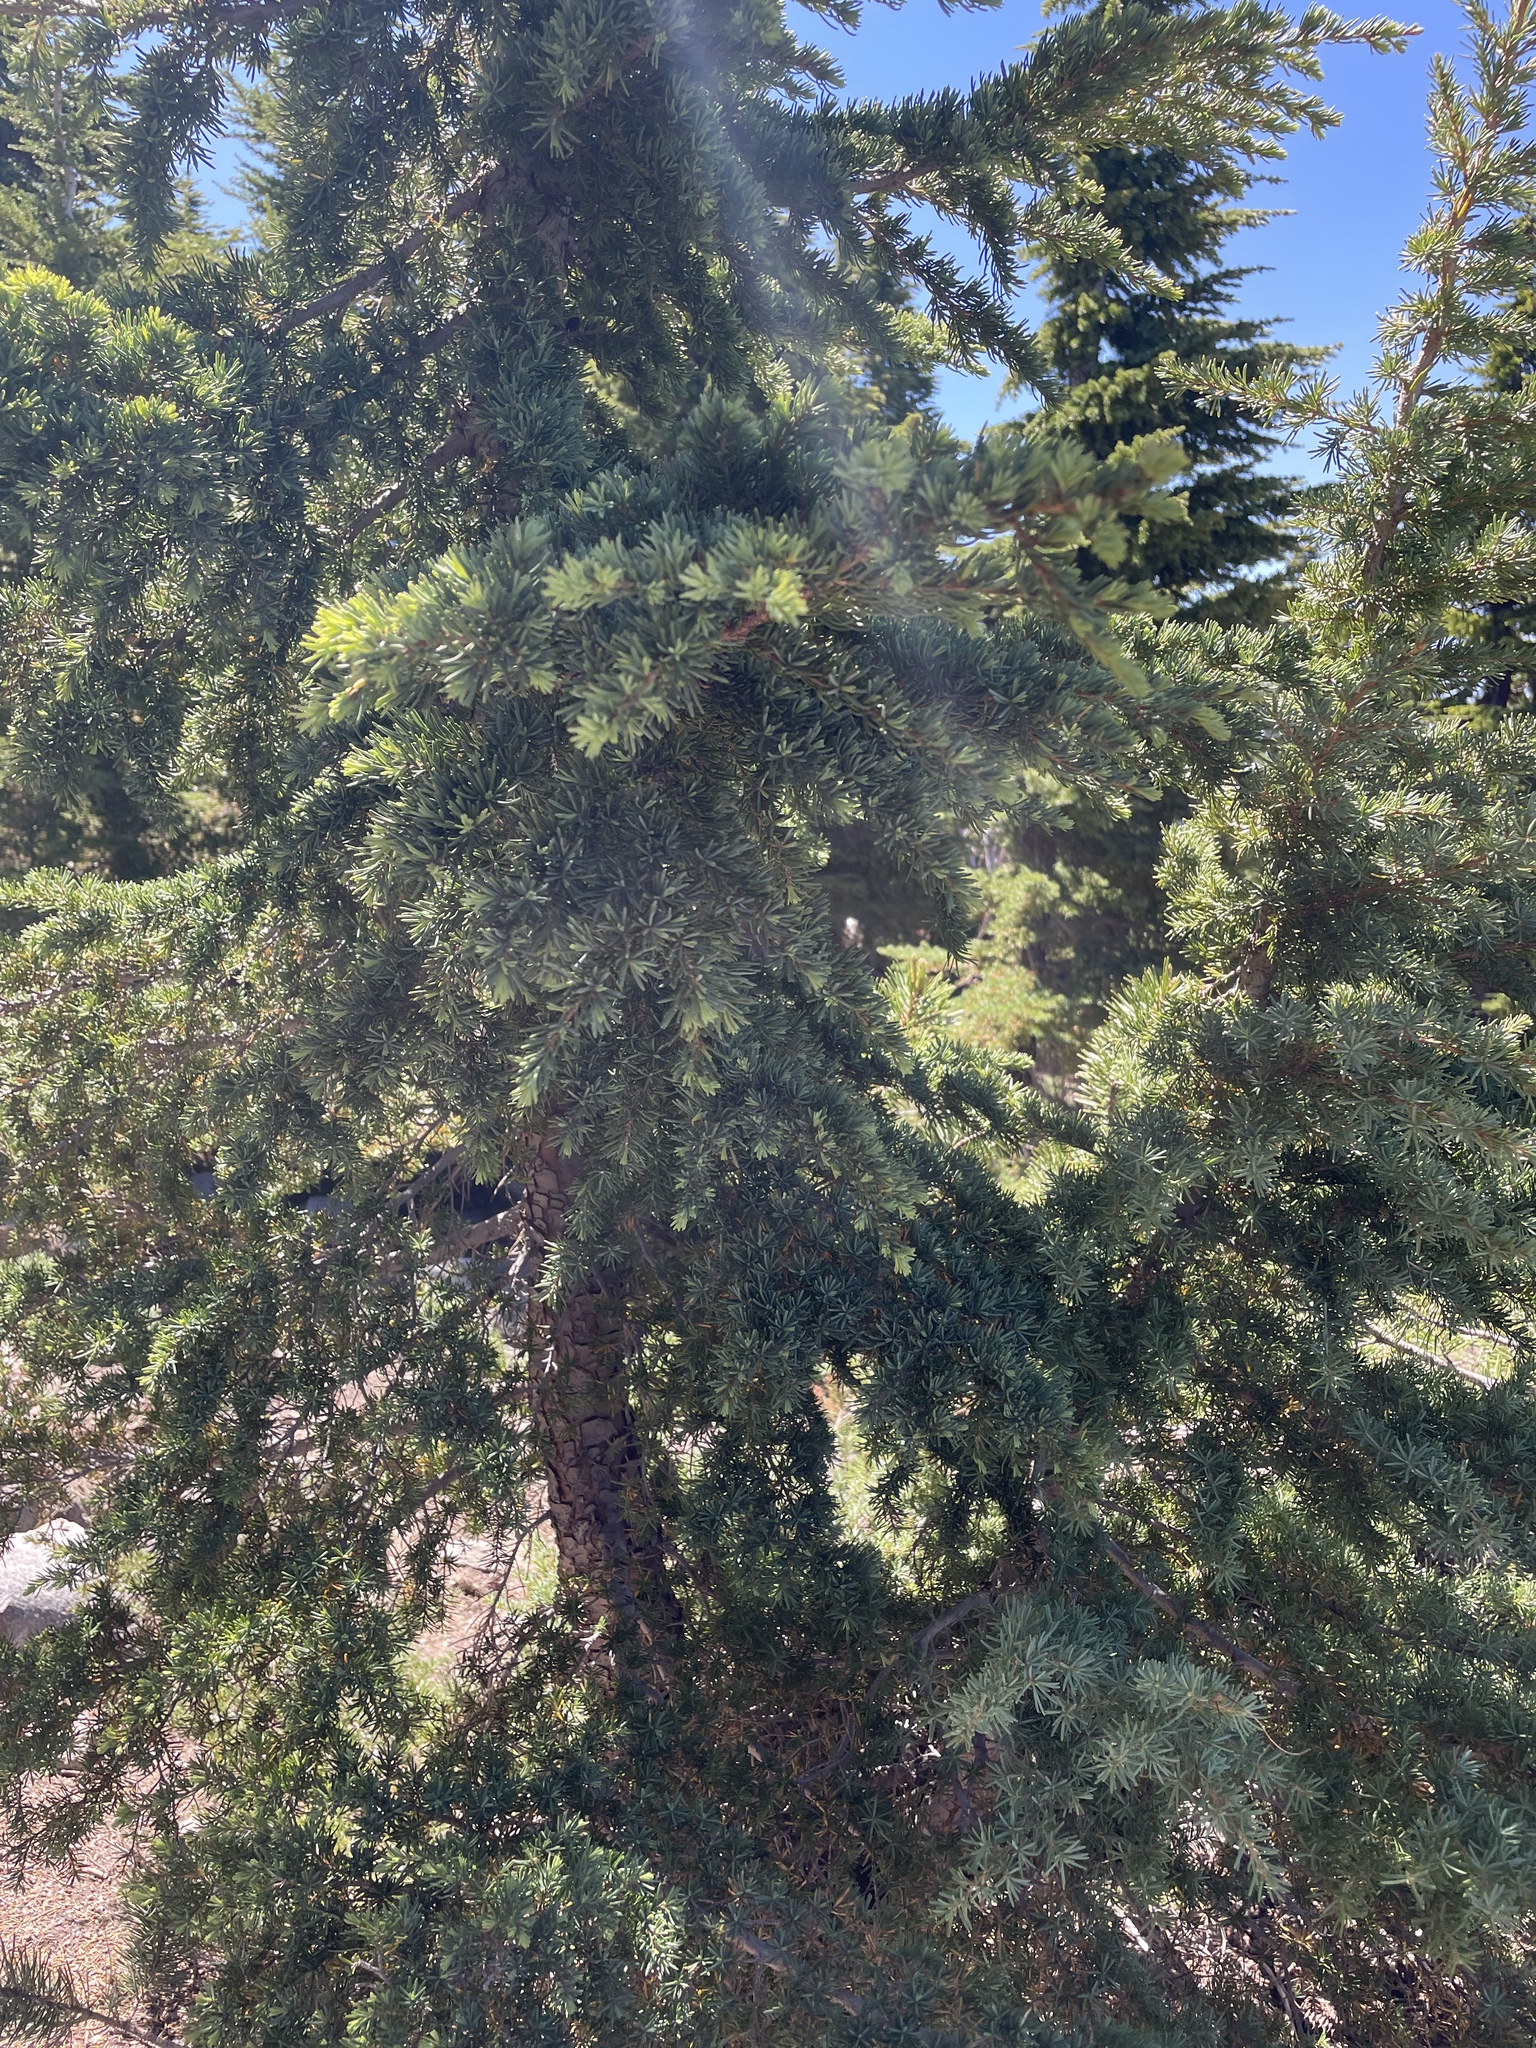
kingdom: Plantae
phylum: Tracheophyta
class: Pinopsida
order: Pinales
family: Pinaceae
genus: Tsuga
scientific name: Tsuga mertensiana
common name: Mountain hemlock
